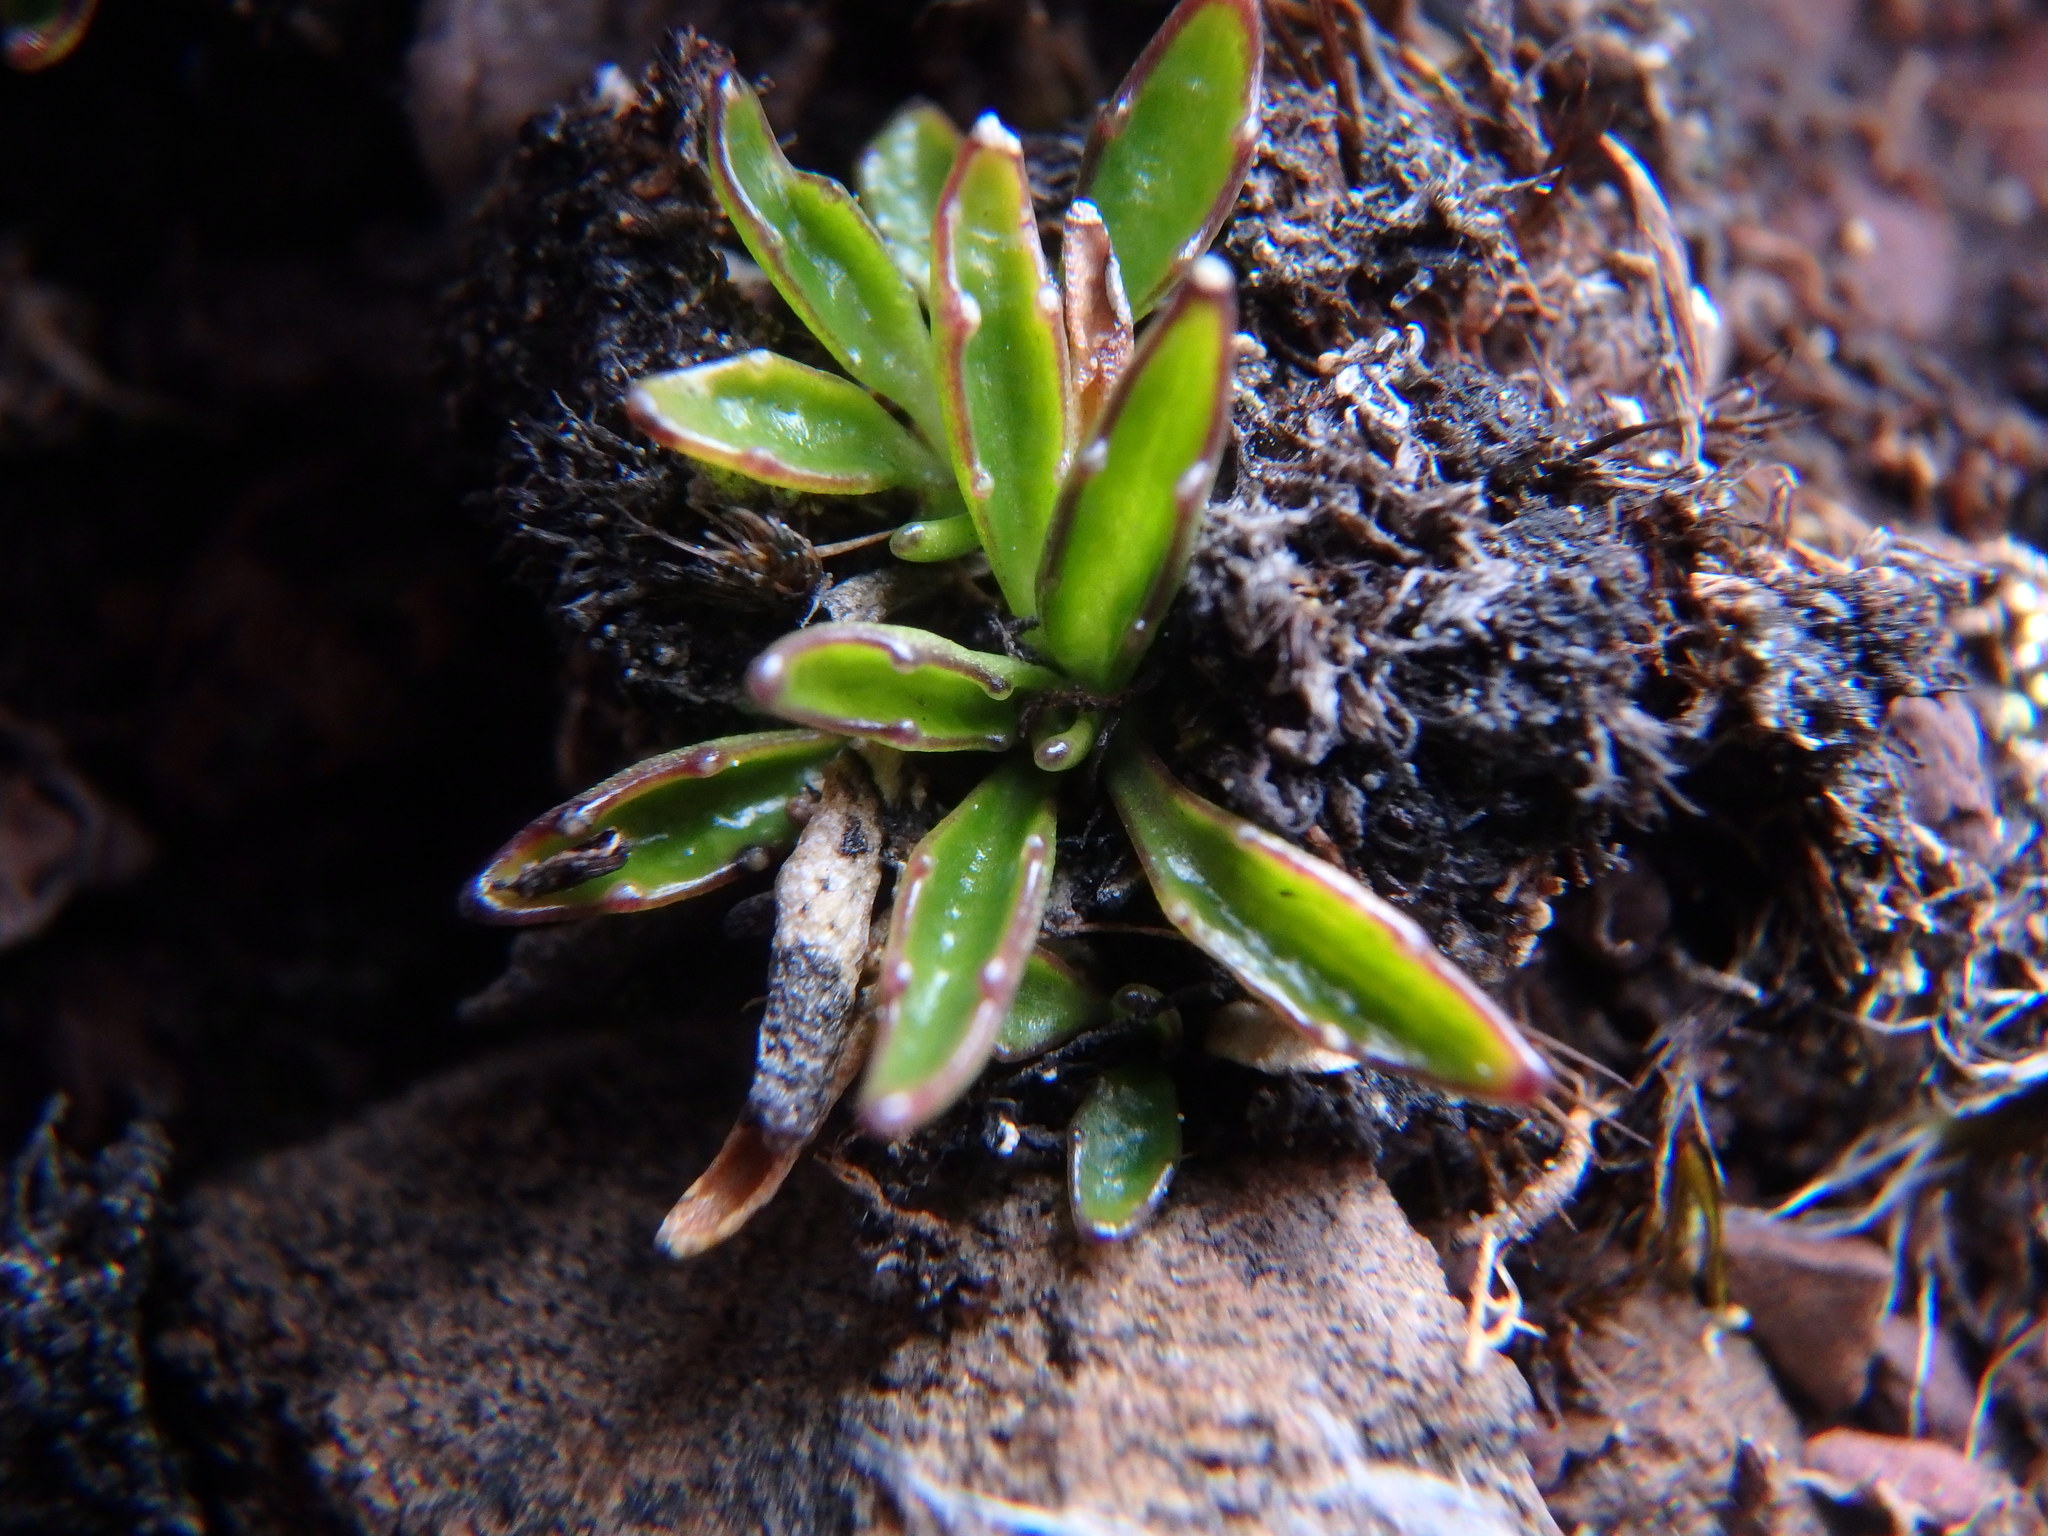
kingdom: Plantae
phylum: Tracheophyta
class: Magnoliopsida
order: Asterales
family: Campanulaceae
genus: Lobelia
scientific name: Lobelia tenera
